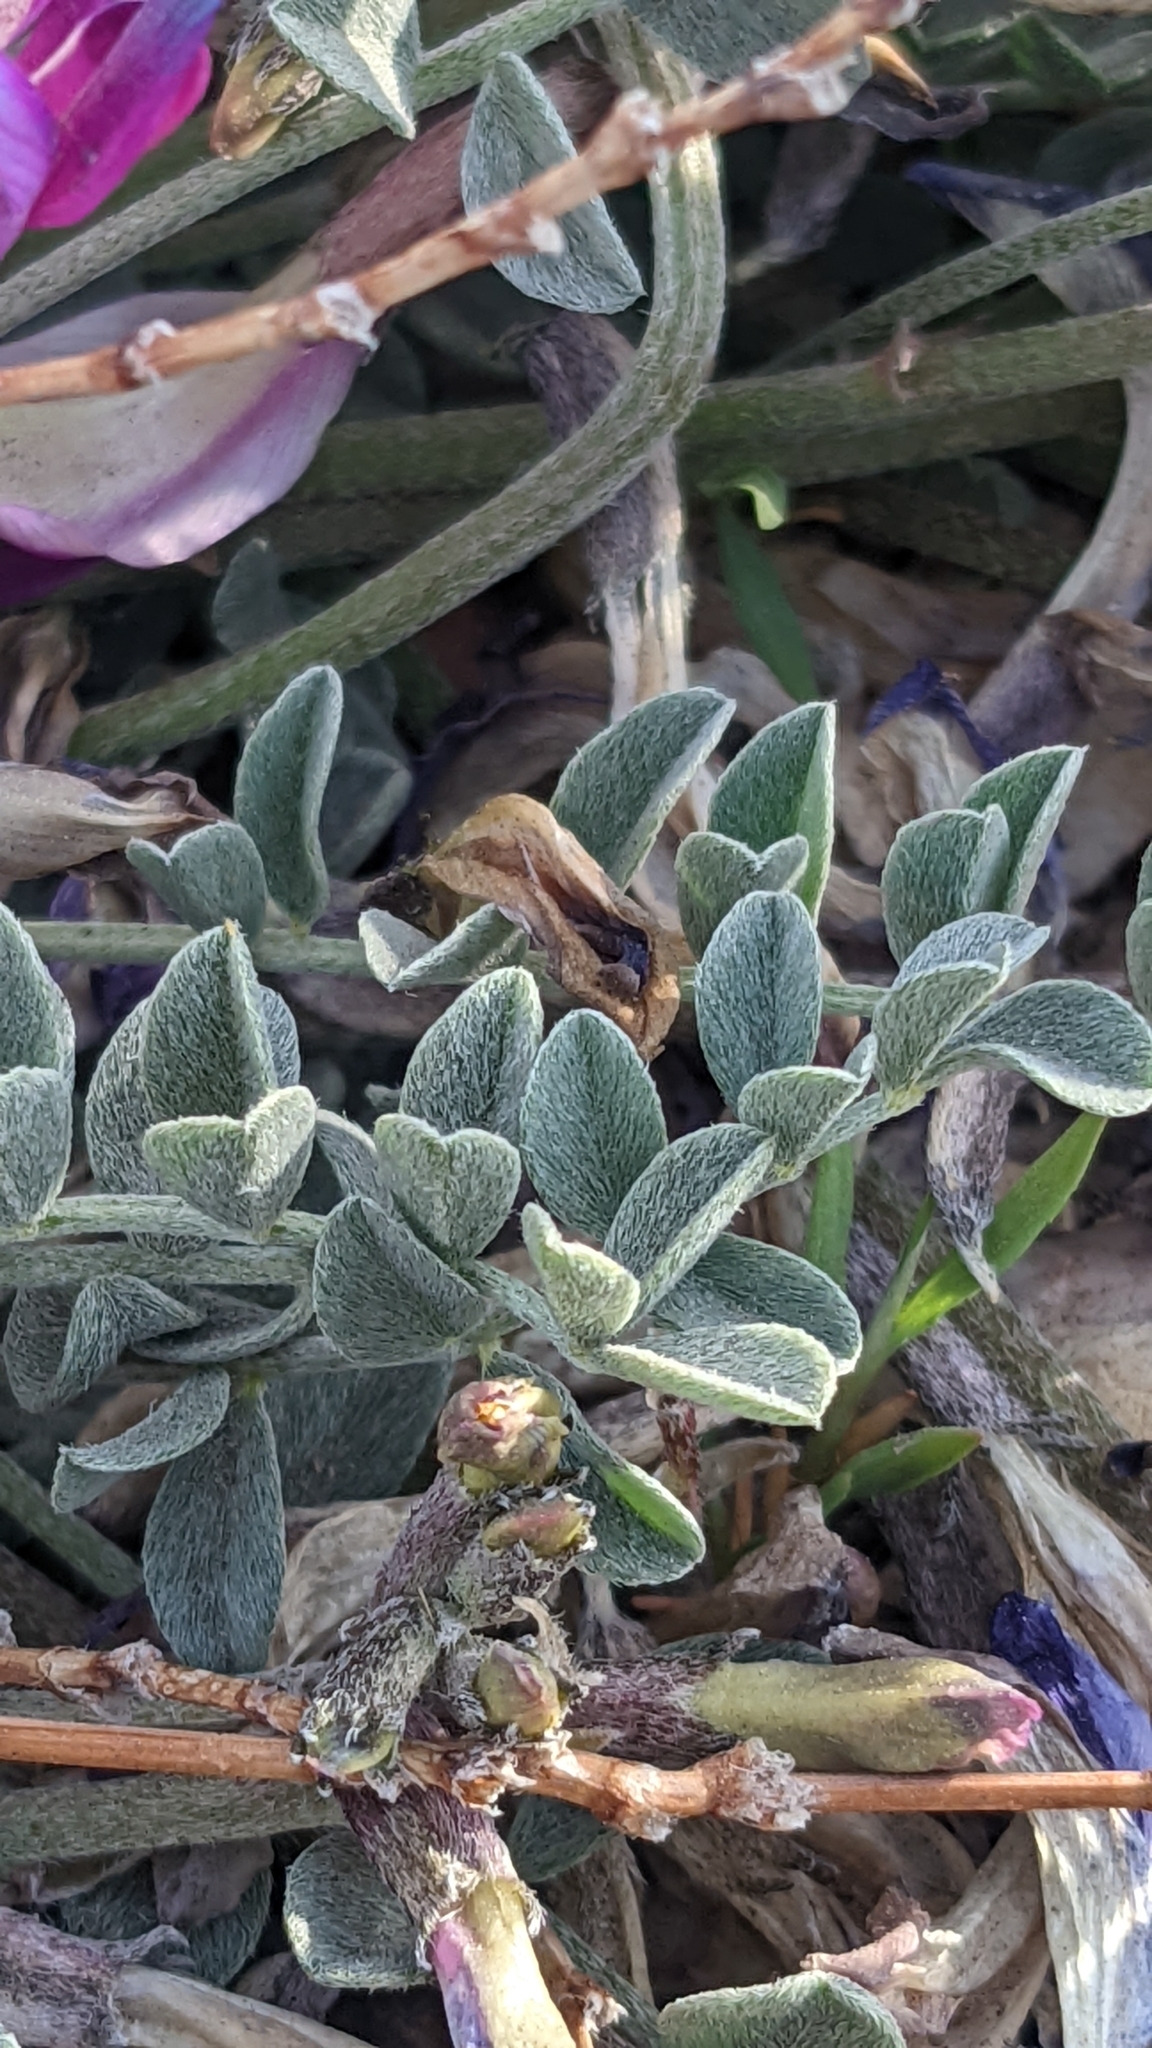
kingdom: Plantae
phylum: Tracheophyta
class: Magnoliopsida
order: Fabales
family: Fabaceae
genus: Astragalus
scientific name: Astragalus amphioxys
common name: Crescent milk-vetch
